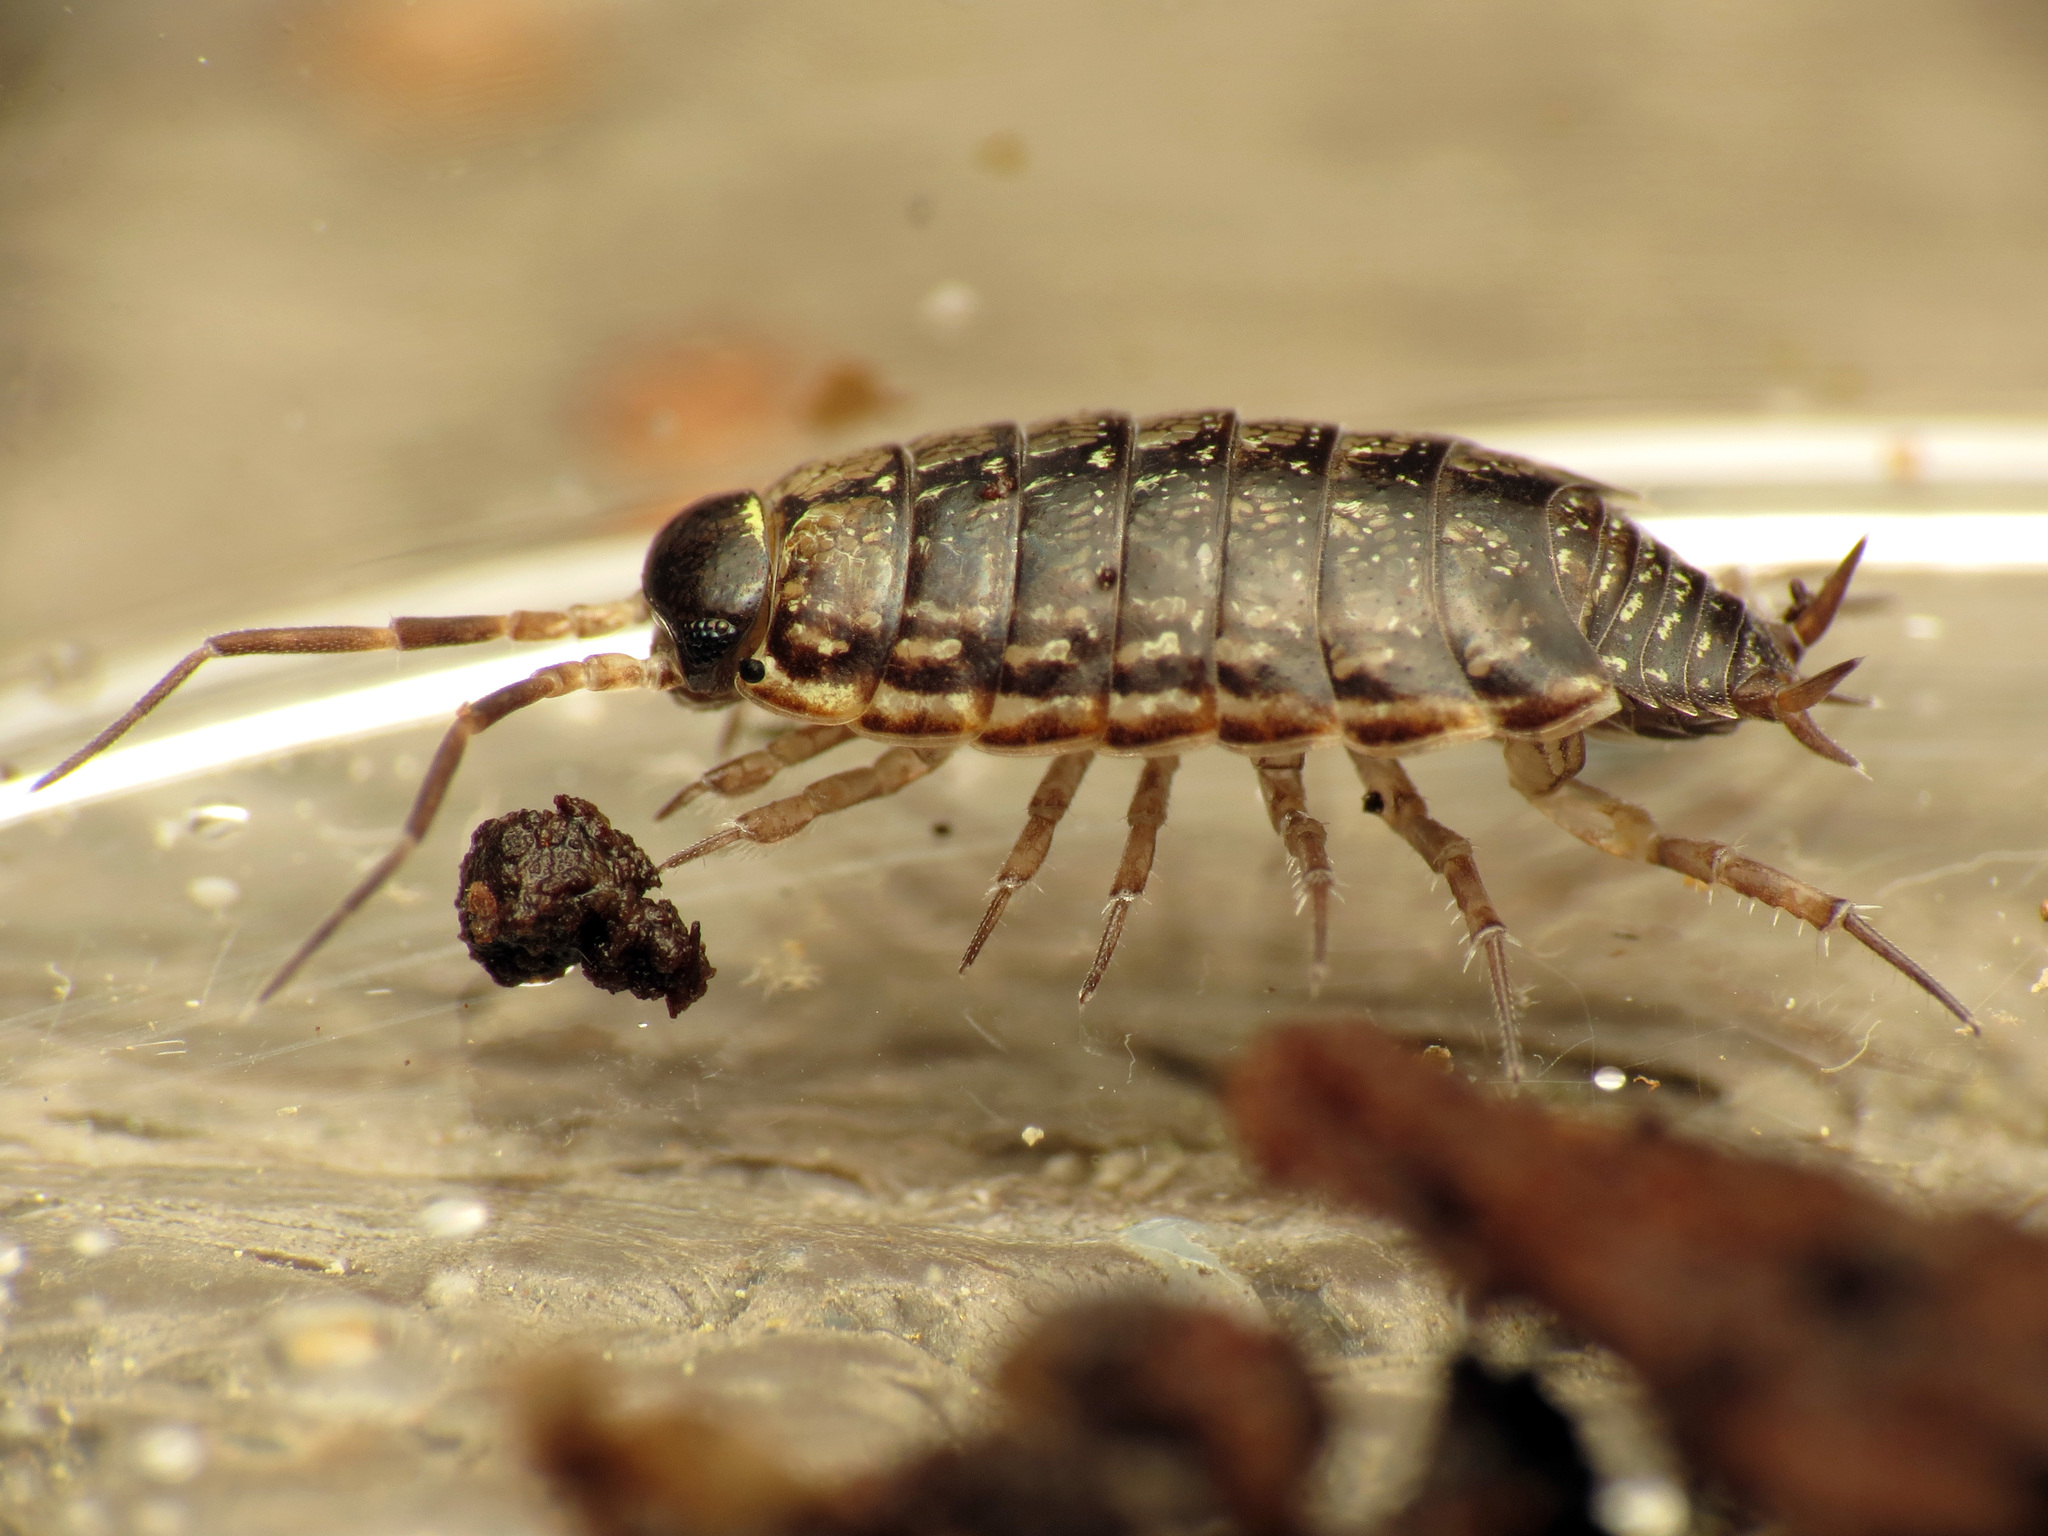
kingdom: Animalia
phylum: Arthropoda
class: Malacostraca
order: Isopoda
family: Philosciidae
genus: Philoscia
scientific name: Philoscia muscorum
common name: Common striped woodlouse
